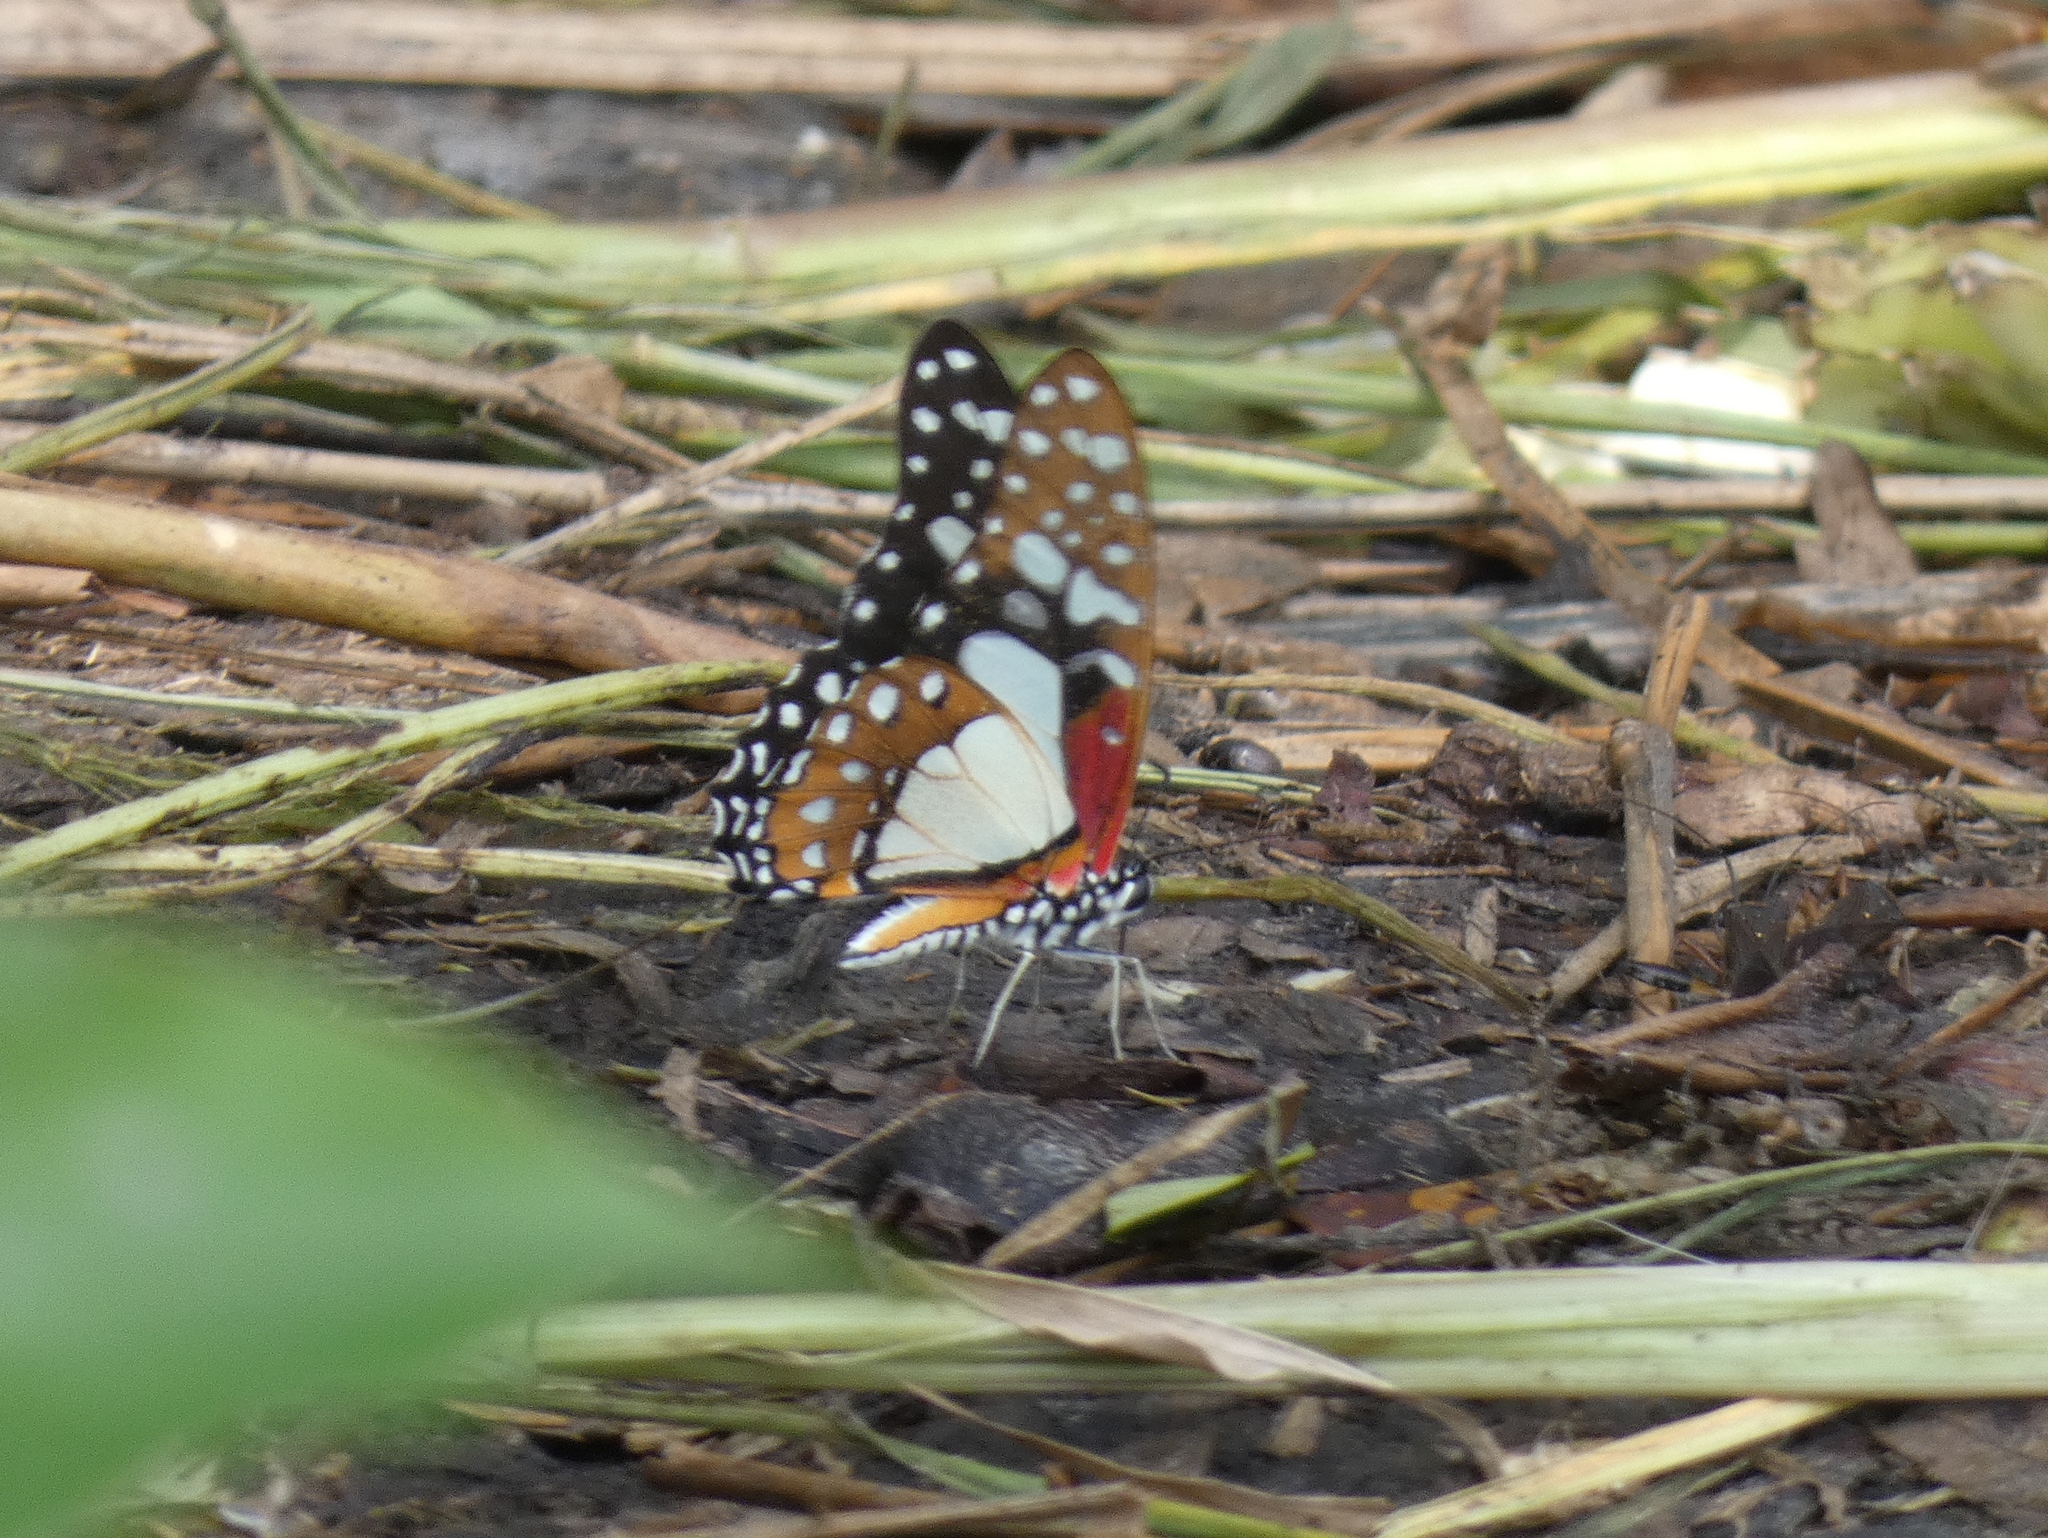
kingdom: Animalia
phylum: Arthropoda
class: Insecta
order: Lepidoptera
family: Papilionidae
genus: Graphium
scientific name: Graphium angolanus
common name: Angola white-lady swordtail
